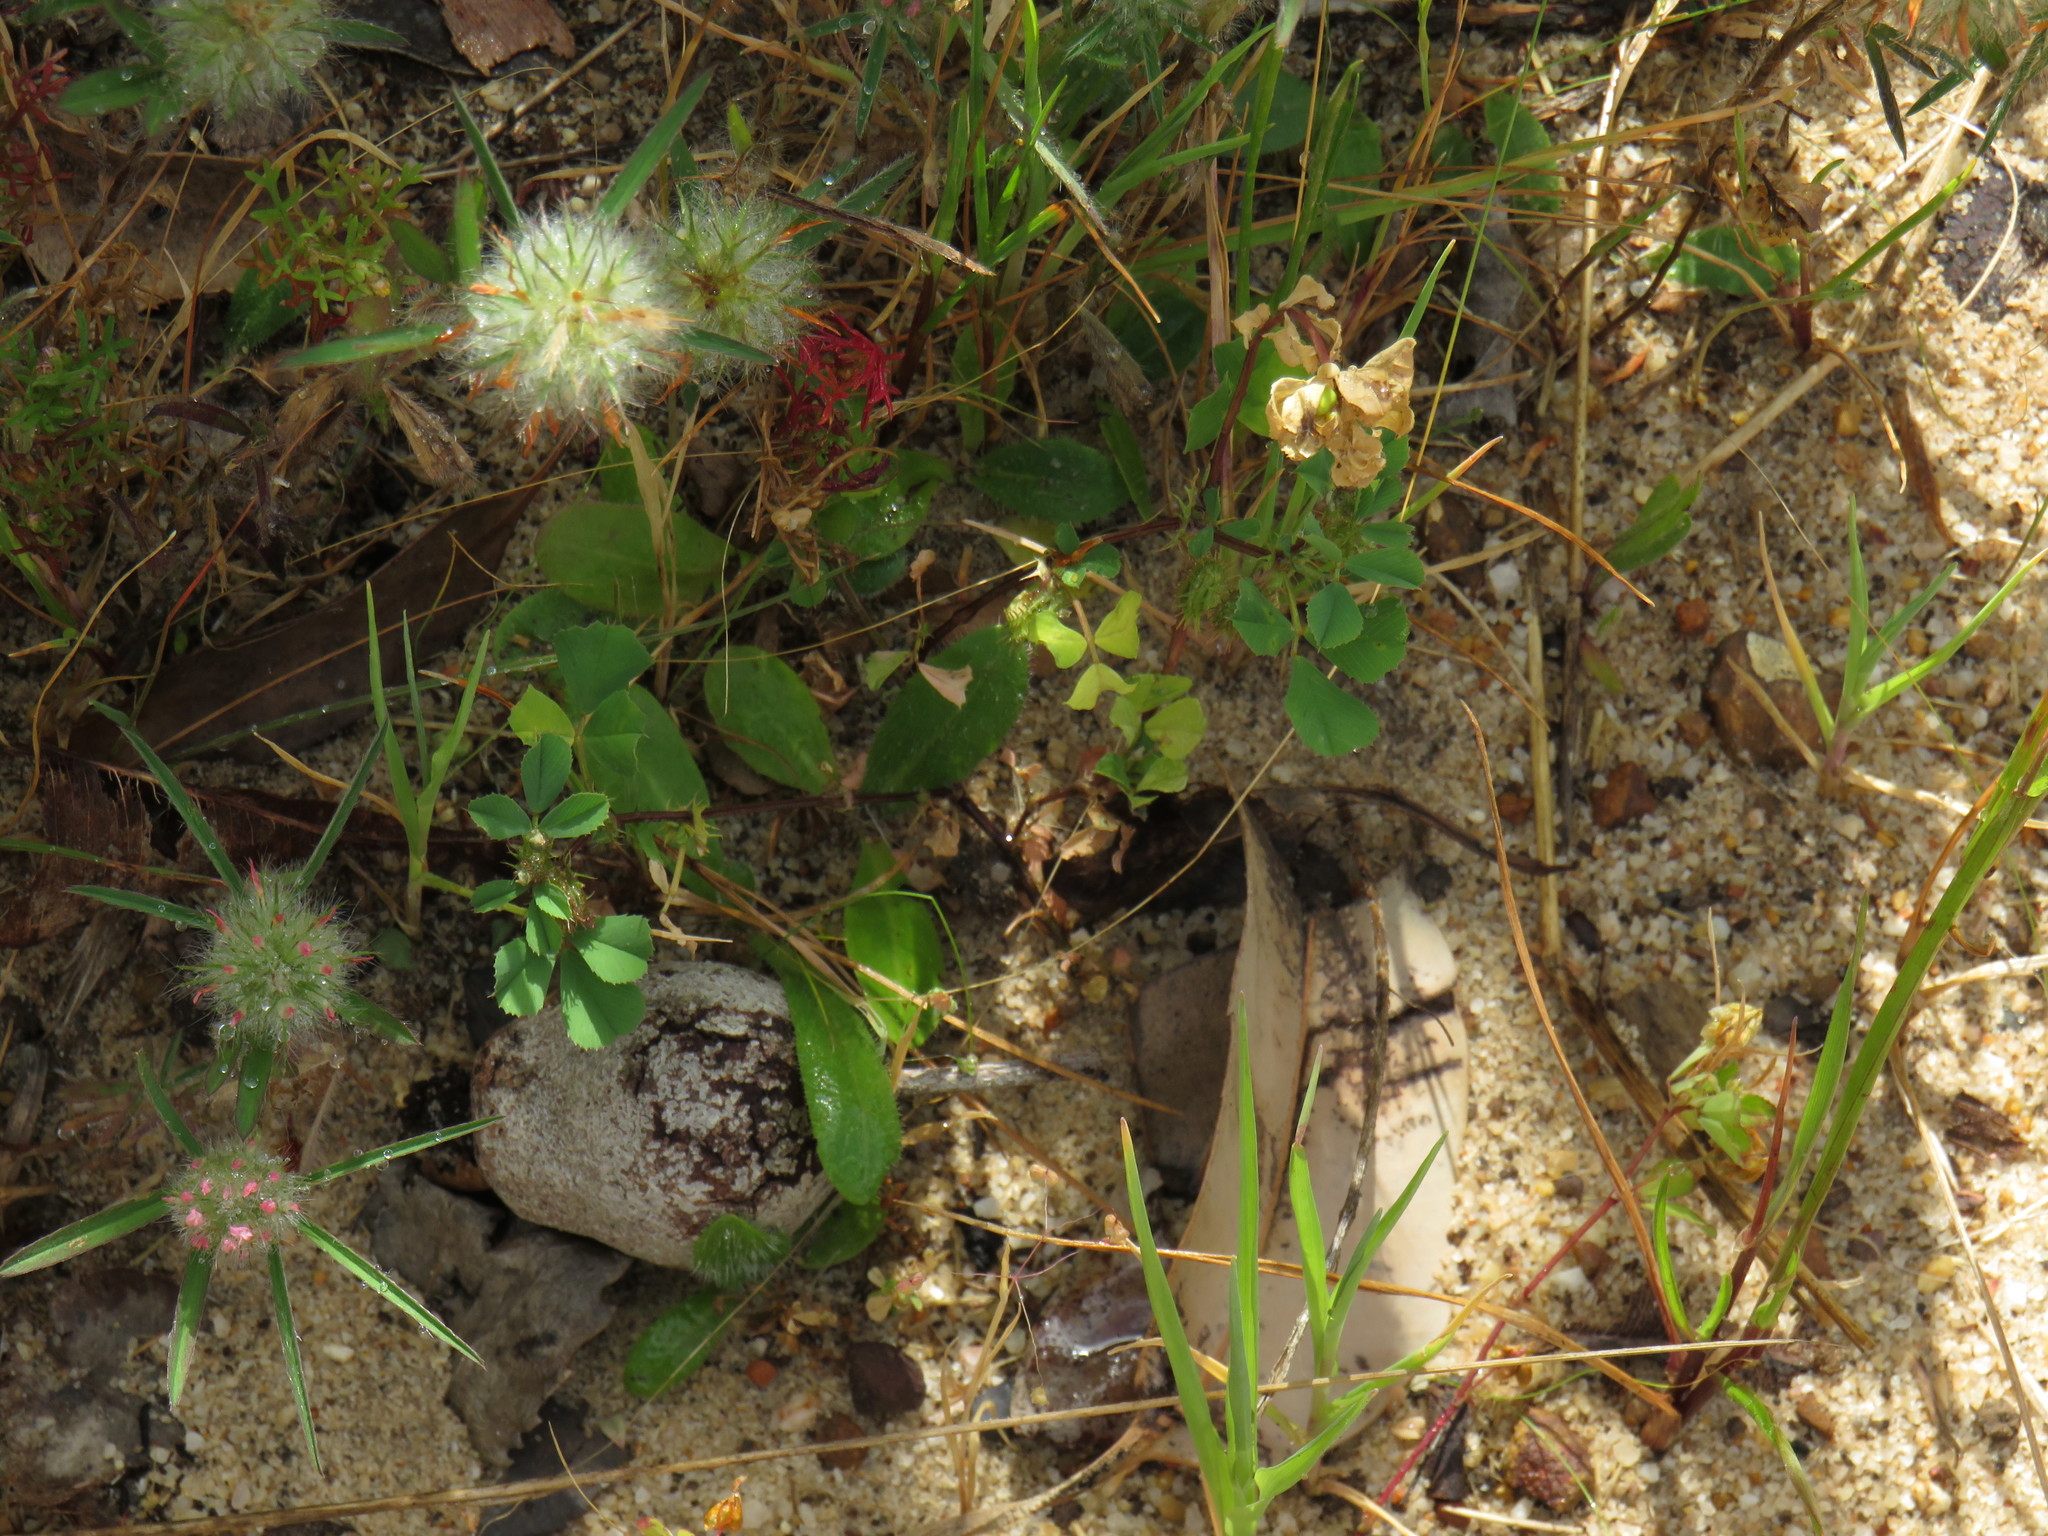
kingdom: Plantae
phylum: Tracheophyta
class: Magnoliopsida
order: Fabales
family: Fabaceae
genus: Medicago
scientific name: Medicago polymorpha
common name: Burclover
